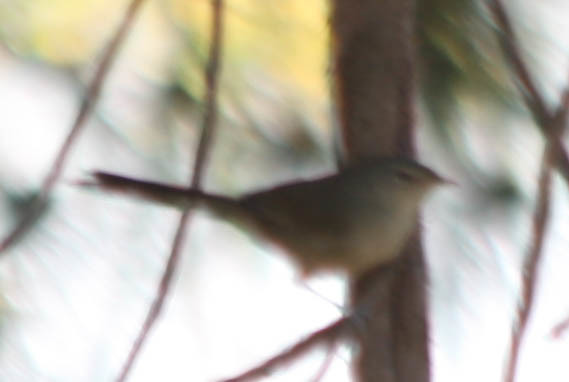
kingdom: Animalia
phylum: Chordata
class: Aves
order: Passeriformes
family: Cisticolidae
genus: Neomixis
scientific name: Neomixis striatigula
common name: Stripe-throated jery
